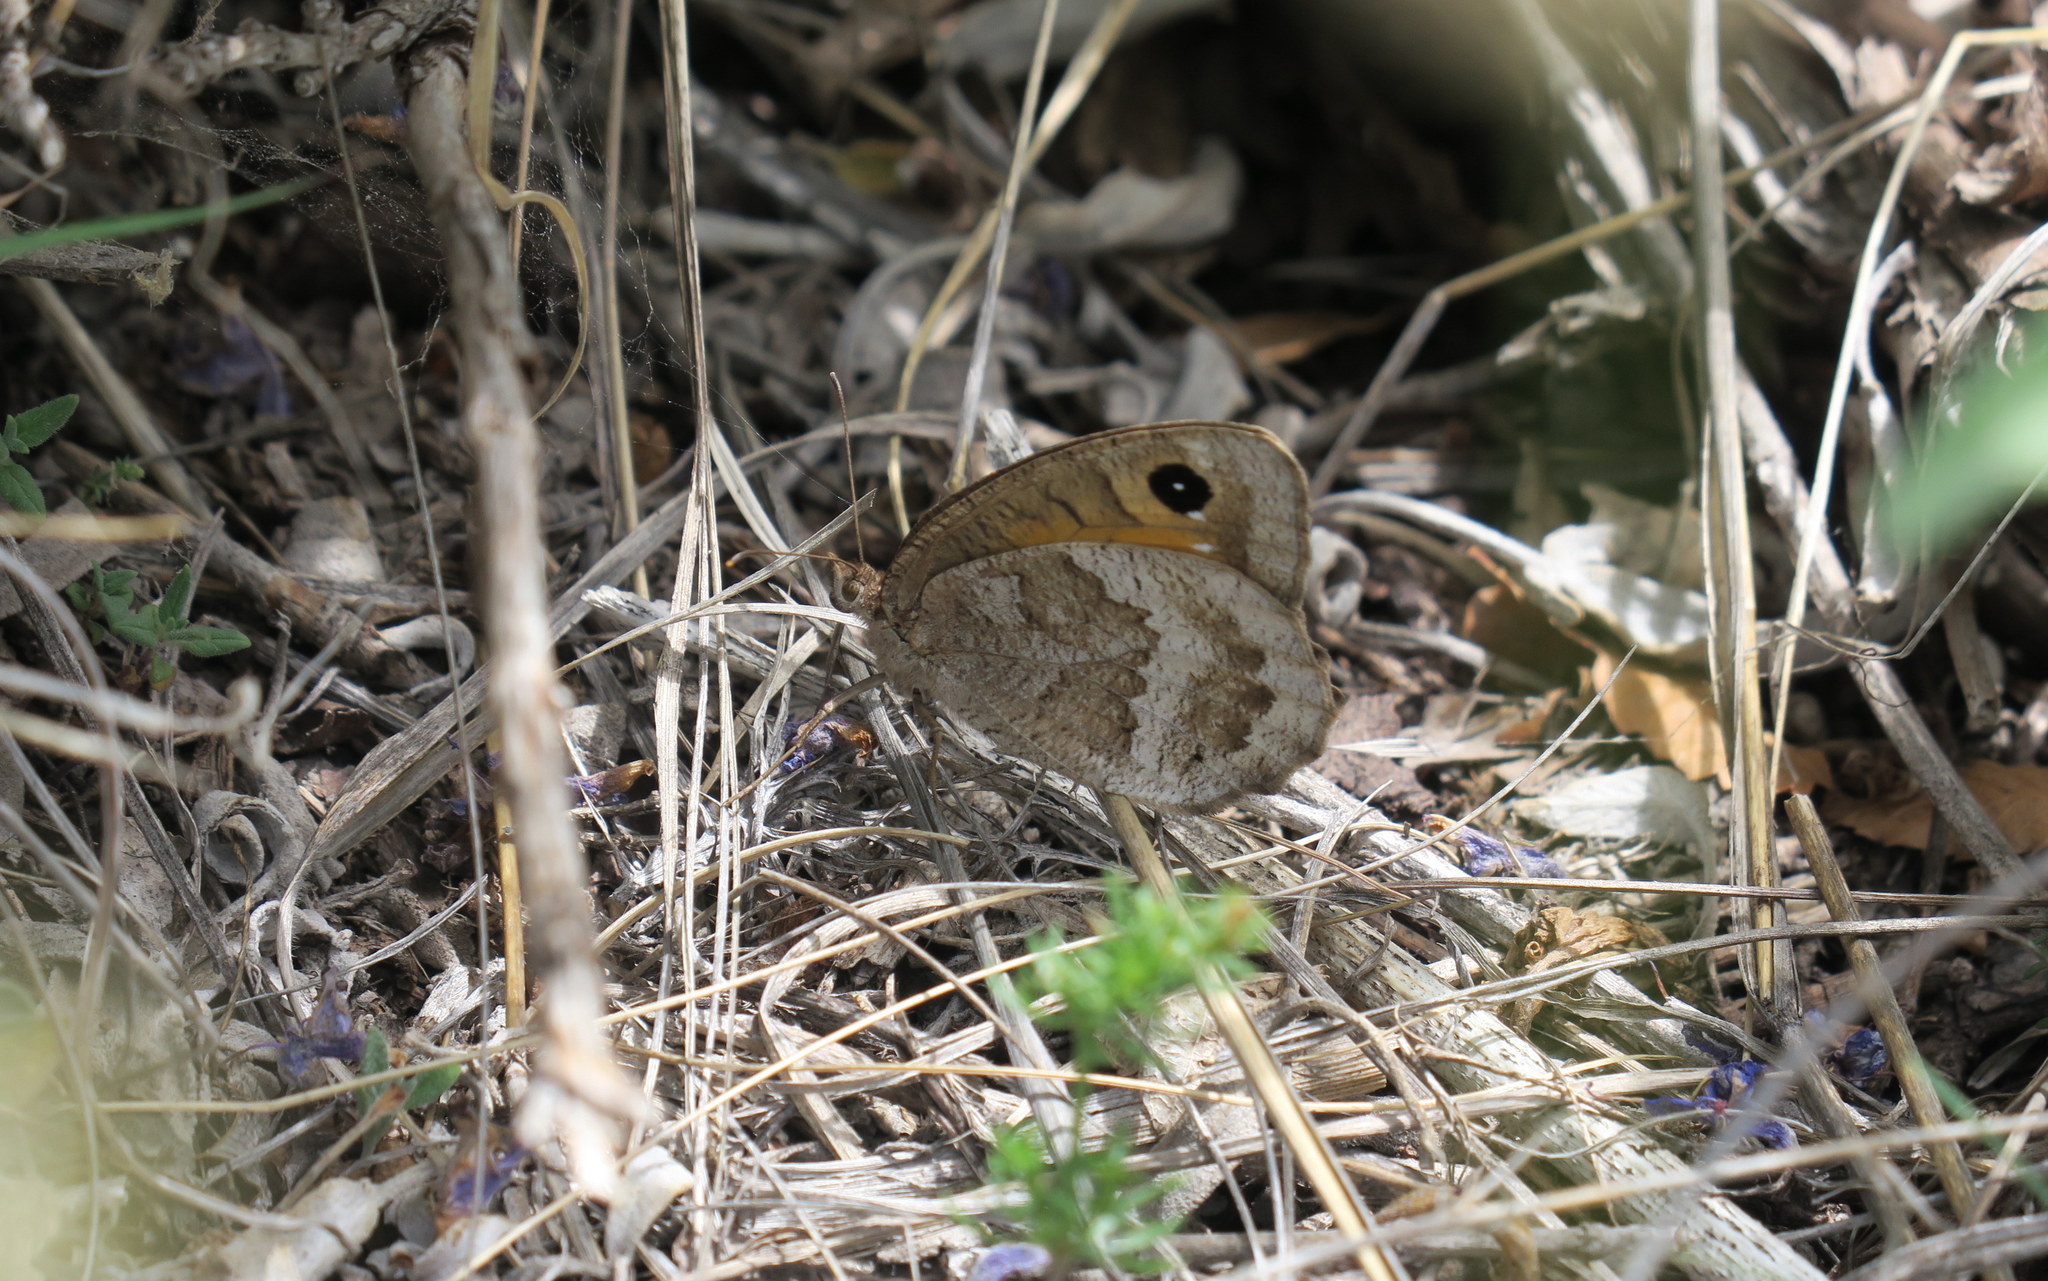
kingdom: Animalia
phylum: Arthropoda
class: Insecta
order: Lepidoptera
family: Nymphalidae
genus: Satyrus
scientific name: Satyrus ferula
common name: Great sooty satyr
